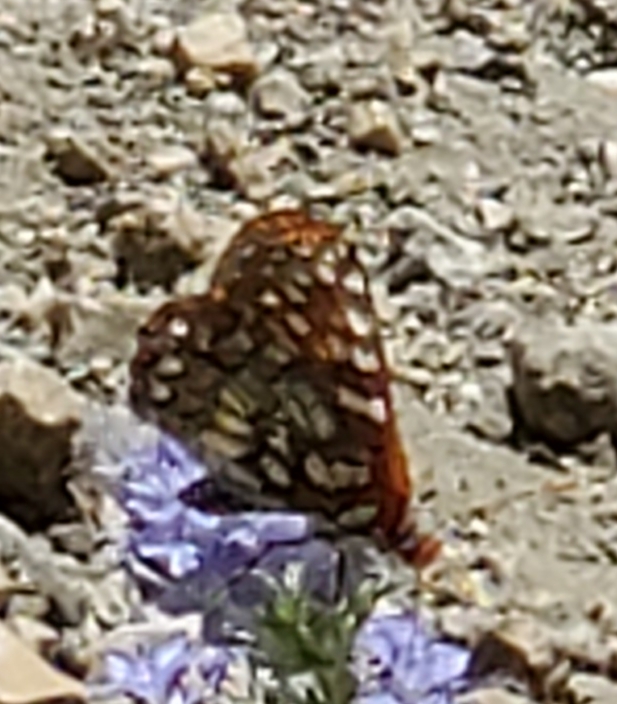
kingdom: Animalia
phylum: Arthropoda
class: Insecta
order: Lepidoptera
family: Nymphalidae
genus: Occidryas
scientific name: Occidryas chalcedona
